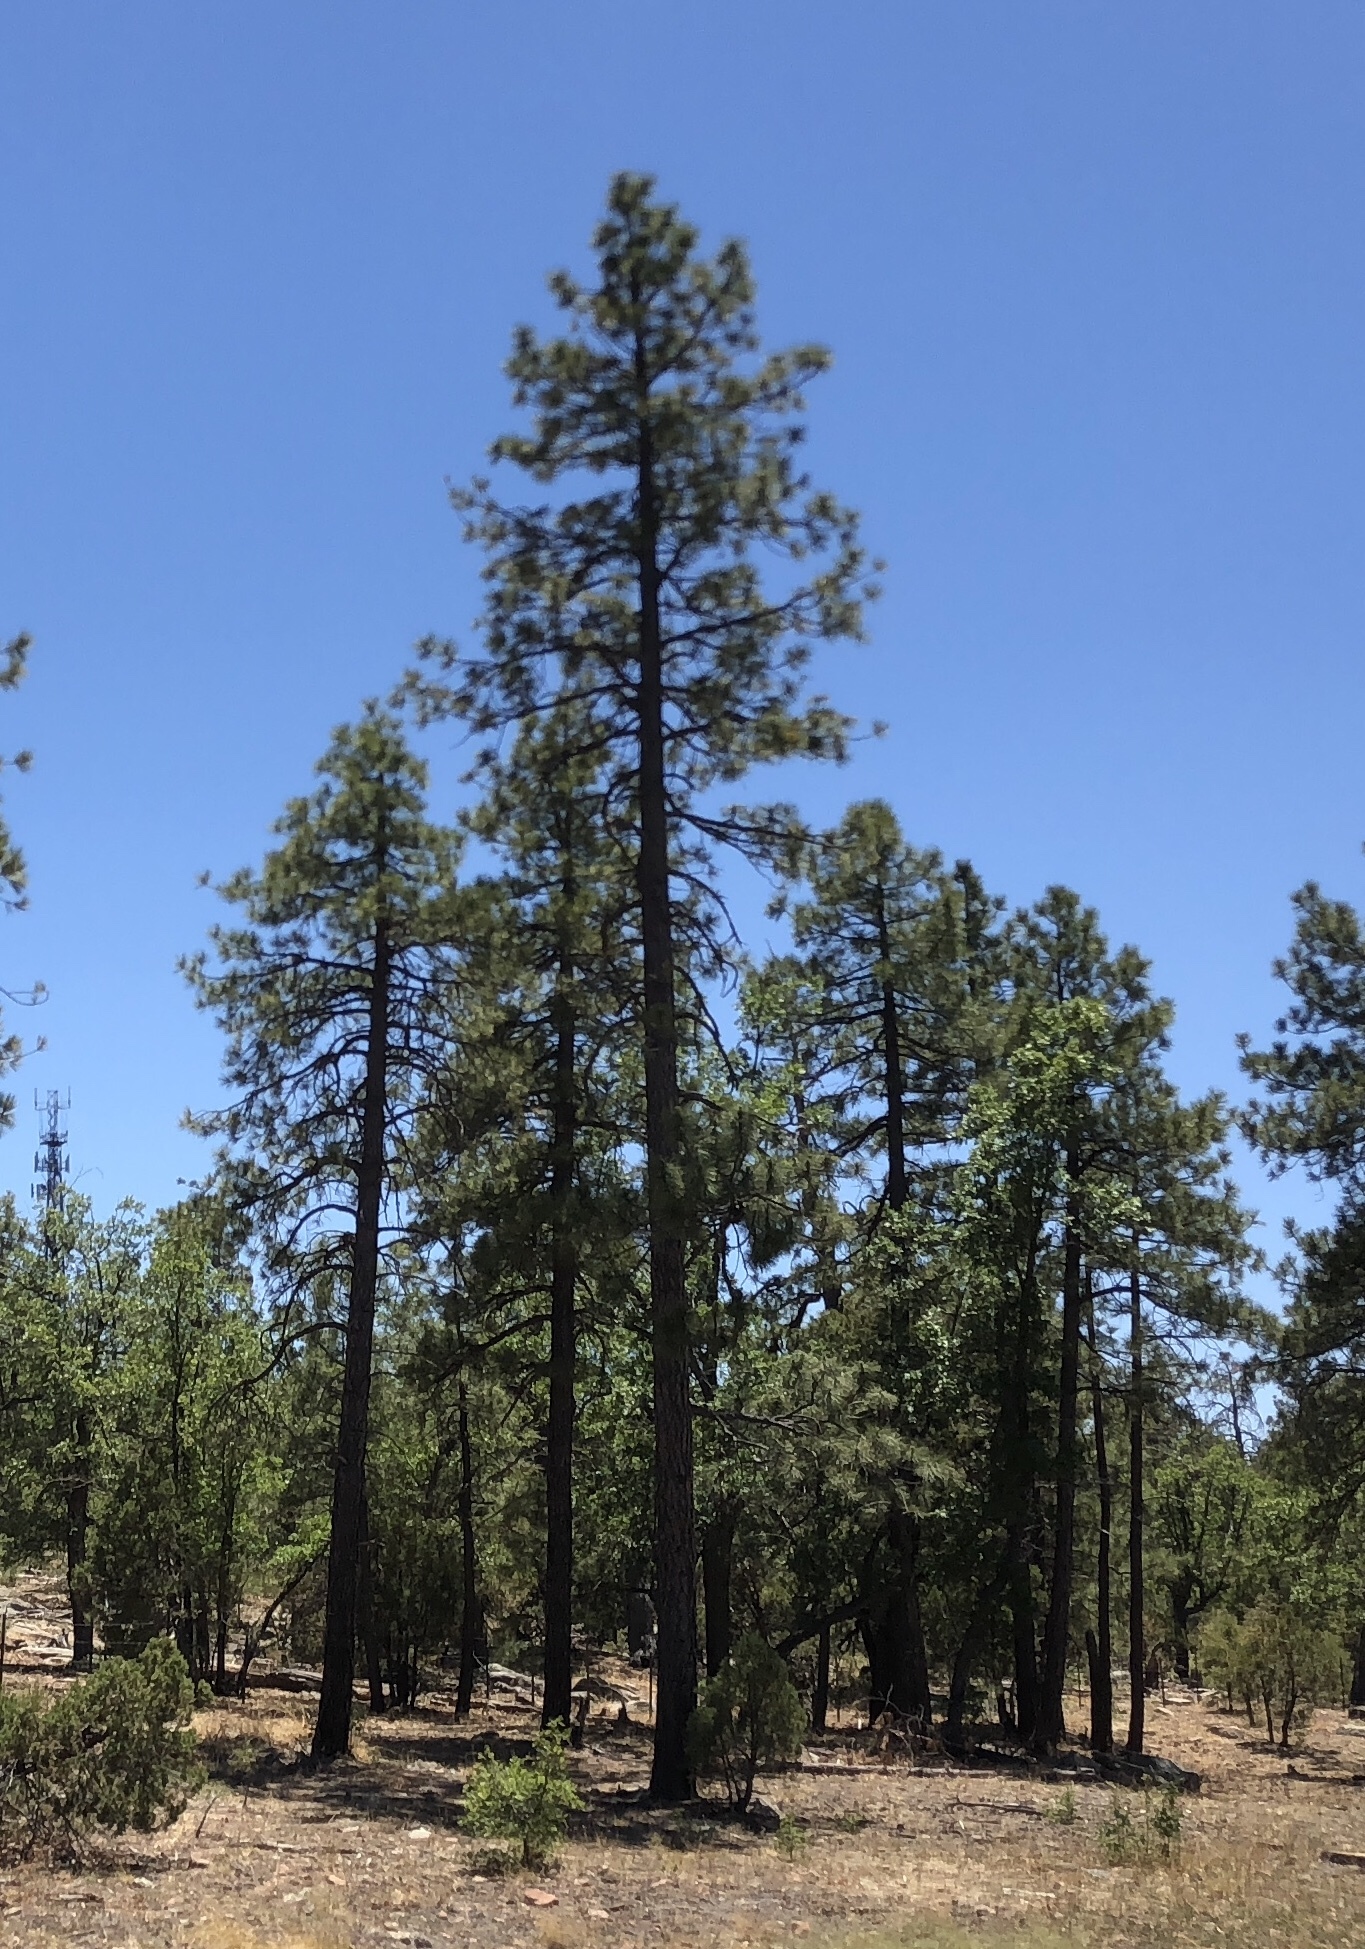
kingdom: Plantae
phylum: Tracheophyta
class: Pinopsida
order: Pinales
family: Pinaceae
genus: Pinus
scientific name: Pinus ponderosa
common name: Western yellow-pine
